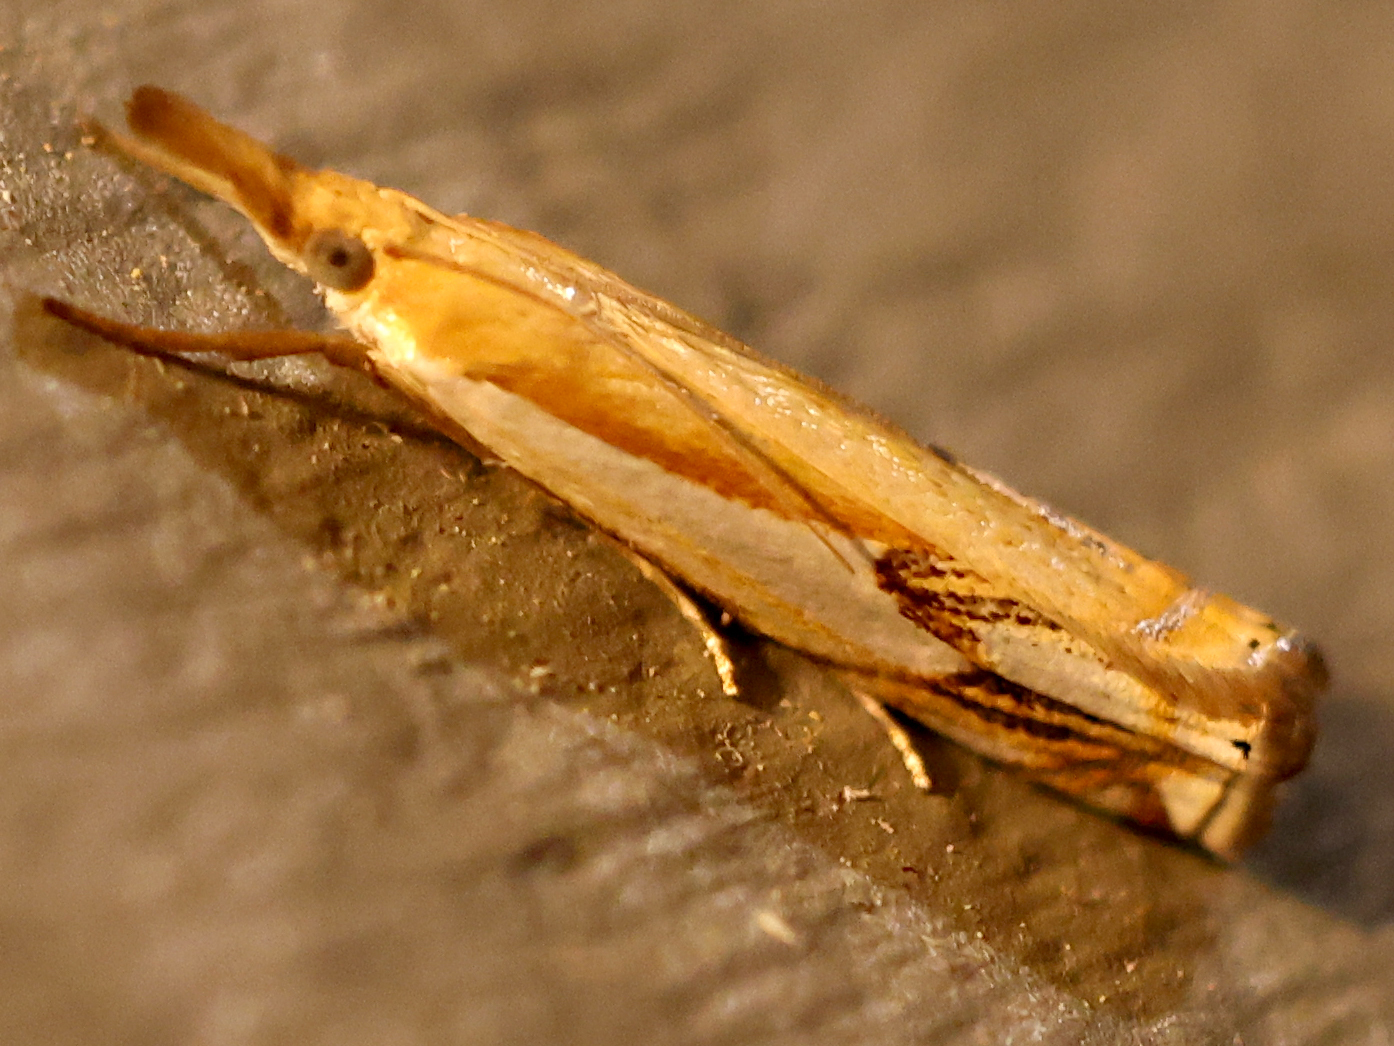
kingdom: Animalia
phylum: Arthropoda
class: Insecta
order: Lepidoptera
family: Crambidae
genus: Crambus
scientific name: Crambus agitatellus
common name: Double-banded grass-veneer
